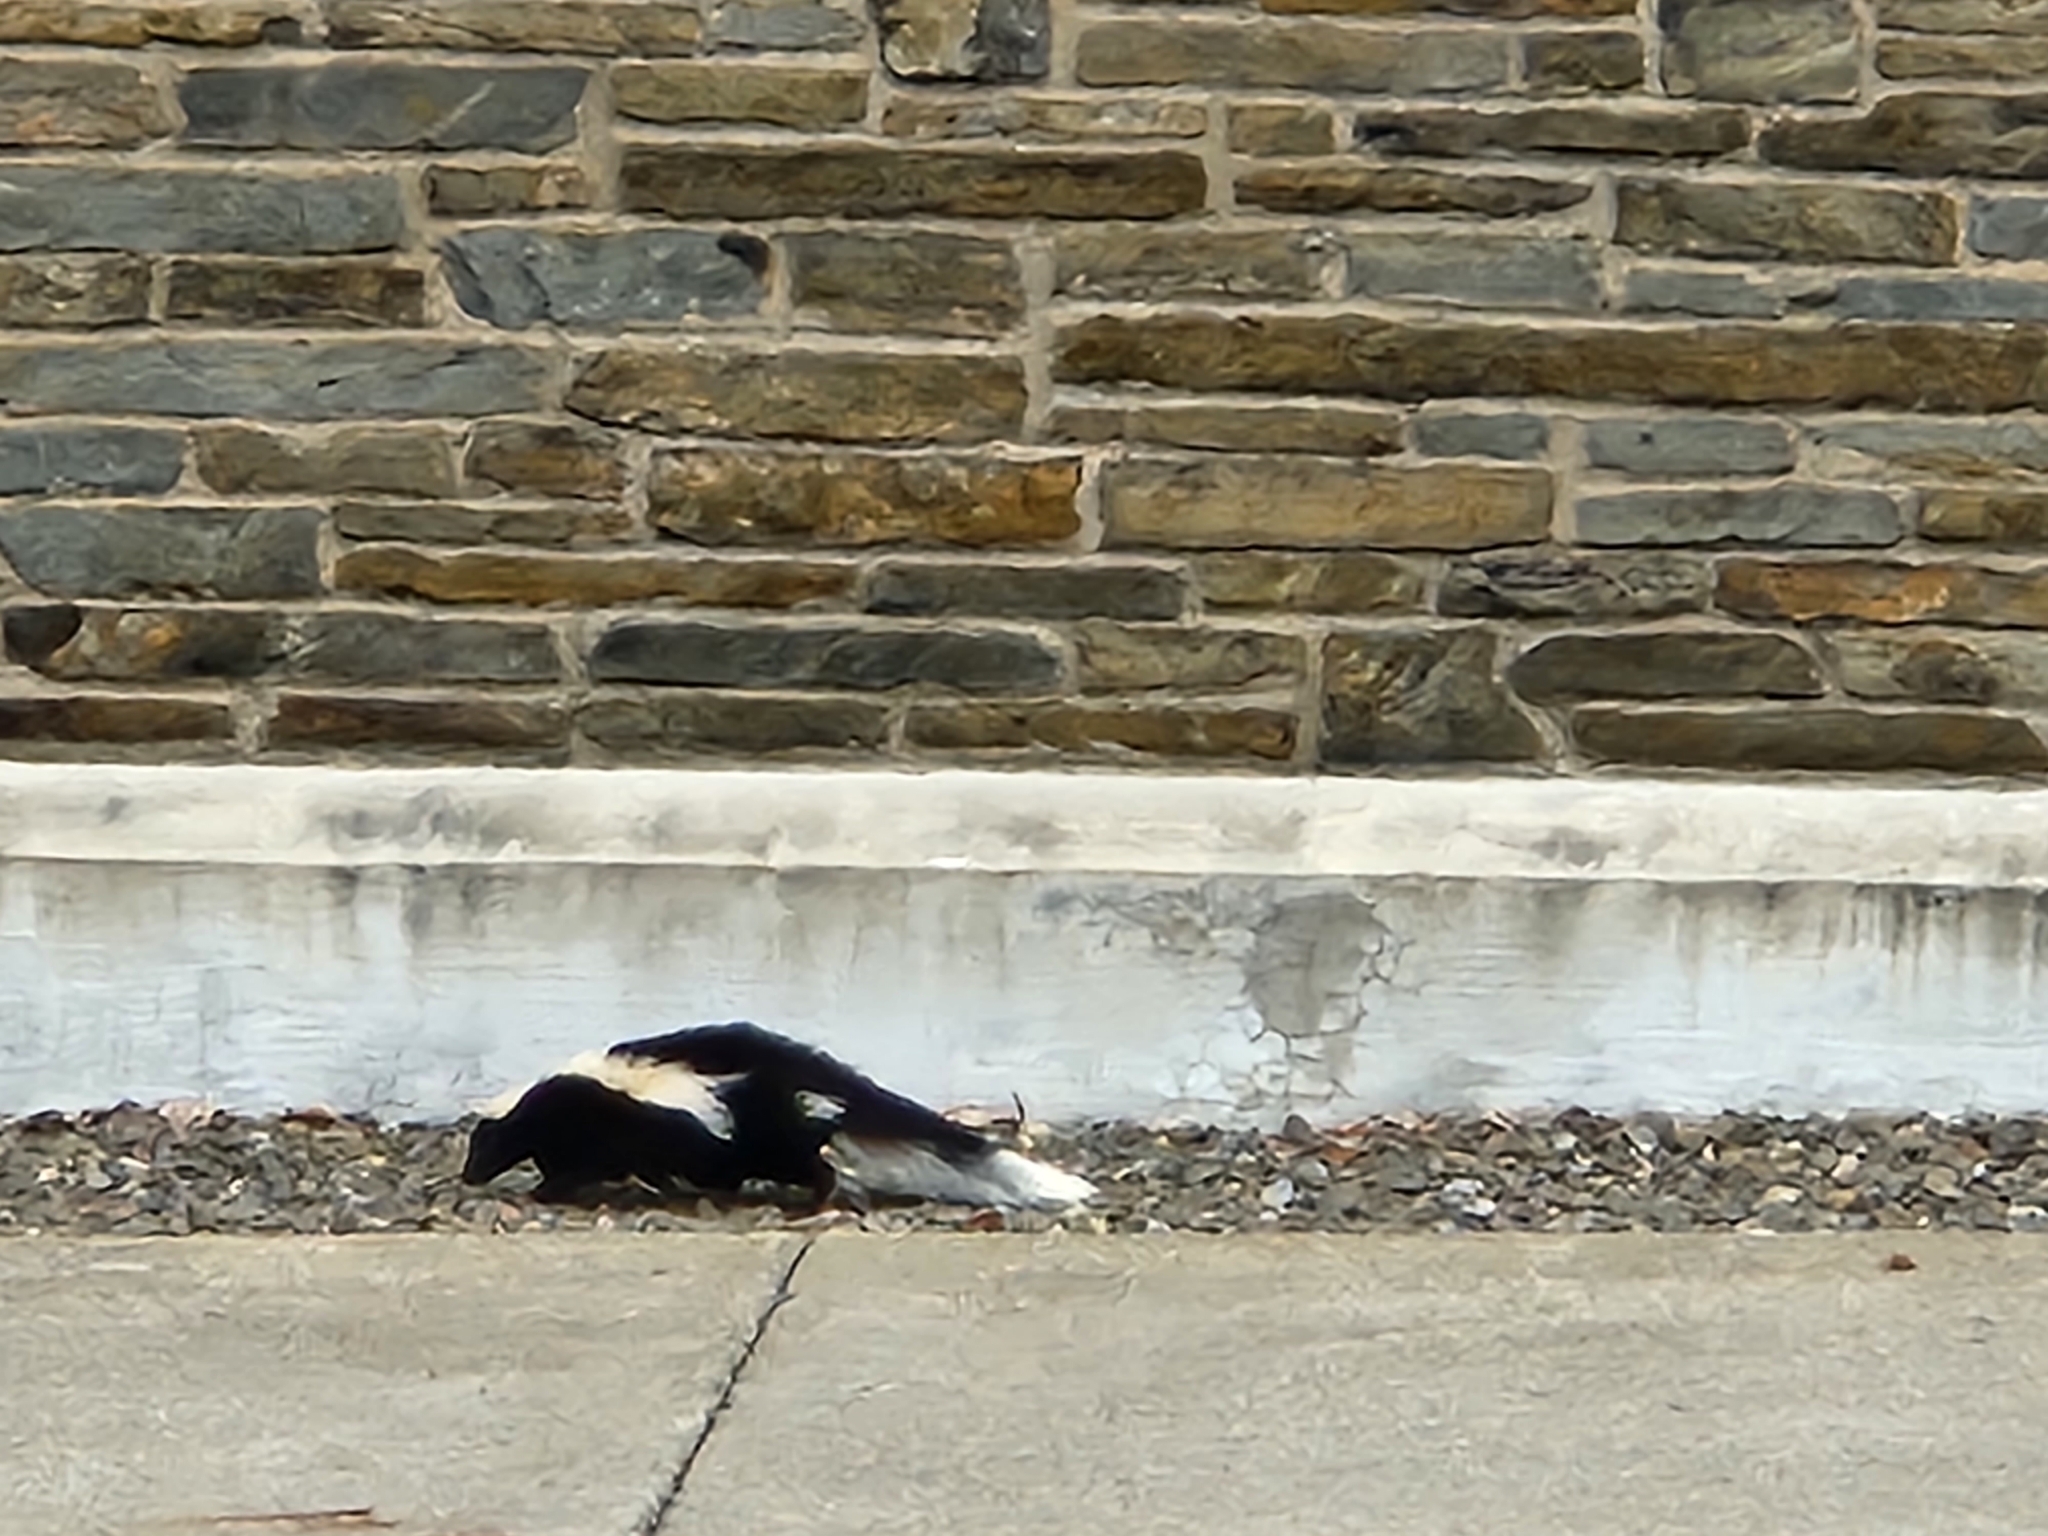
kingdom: Animalia
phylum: Chordata
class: Mammalia
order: Carnivora
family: Mephitidae
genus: Mephitis
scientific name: Mephitis mephitis
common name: Striped skunk
